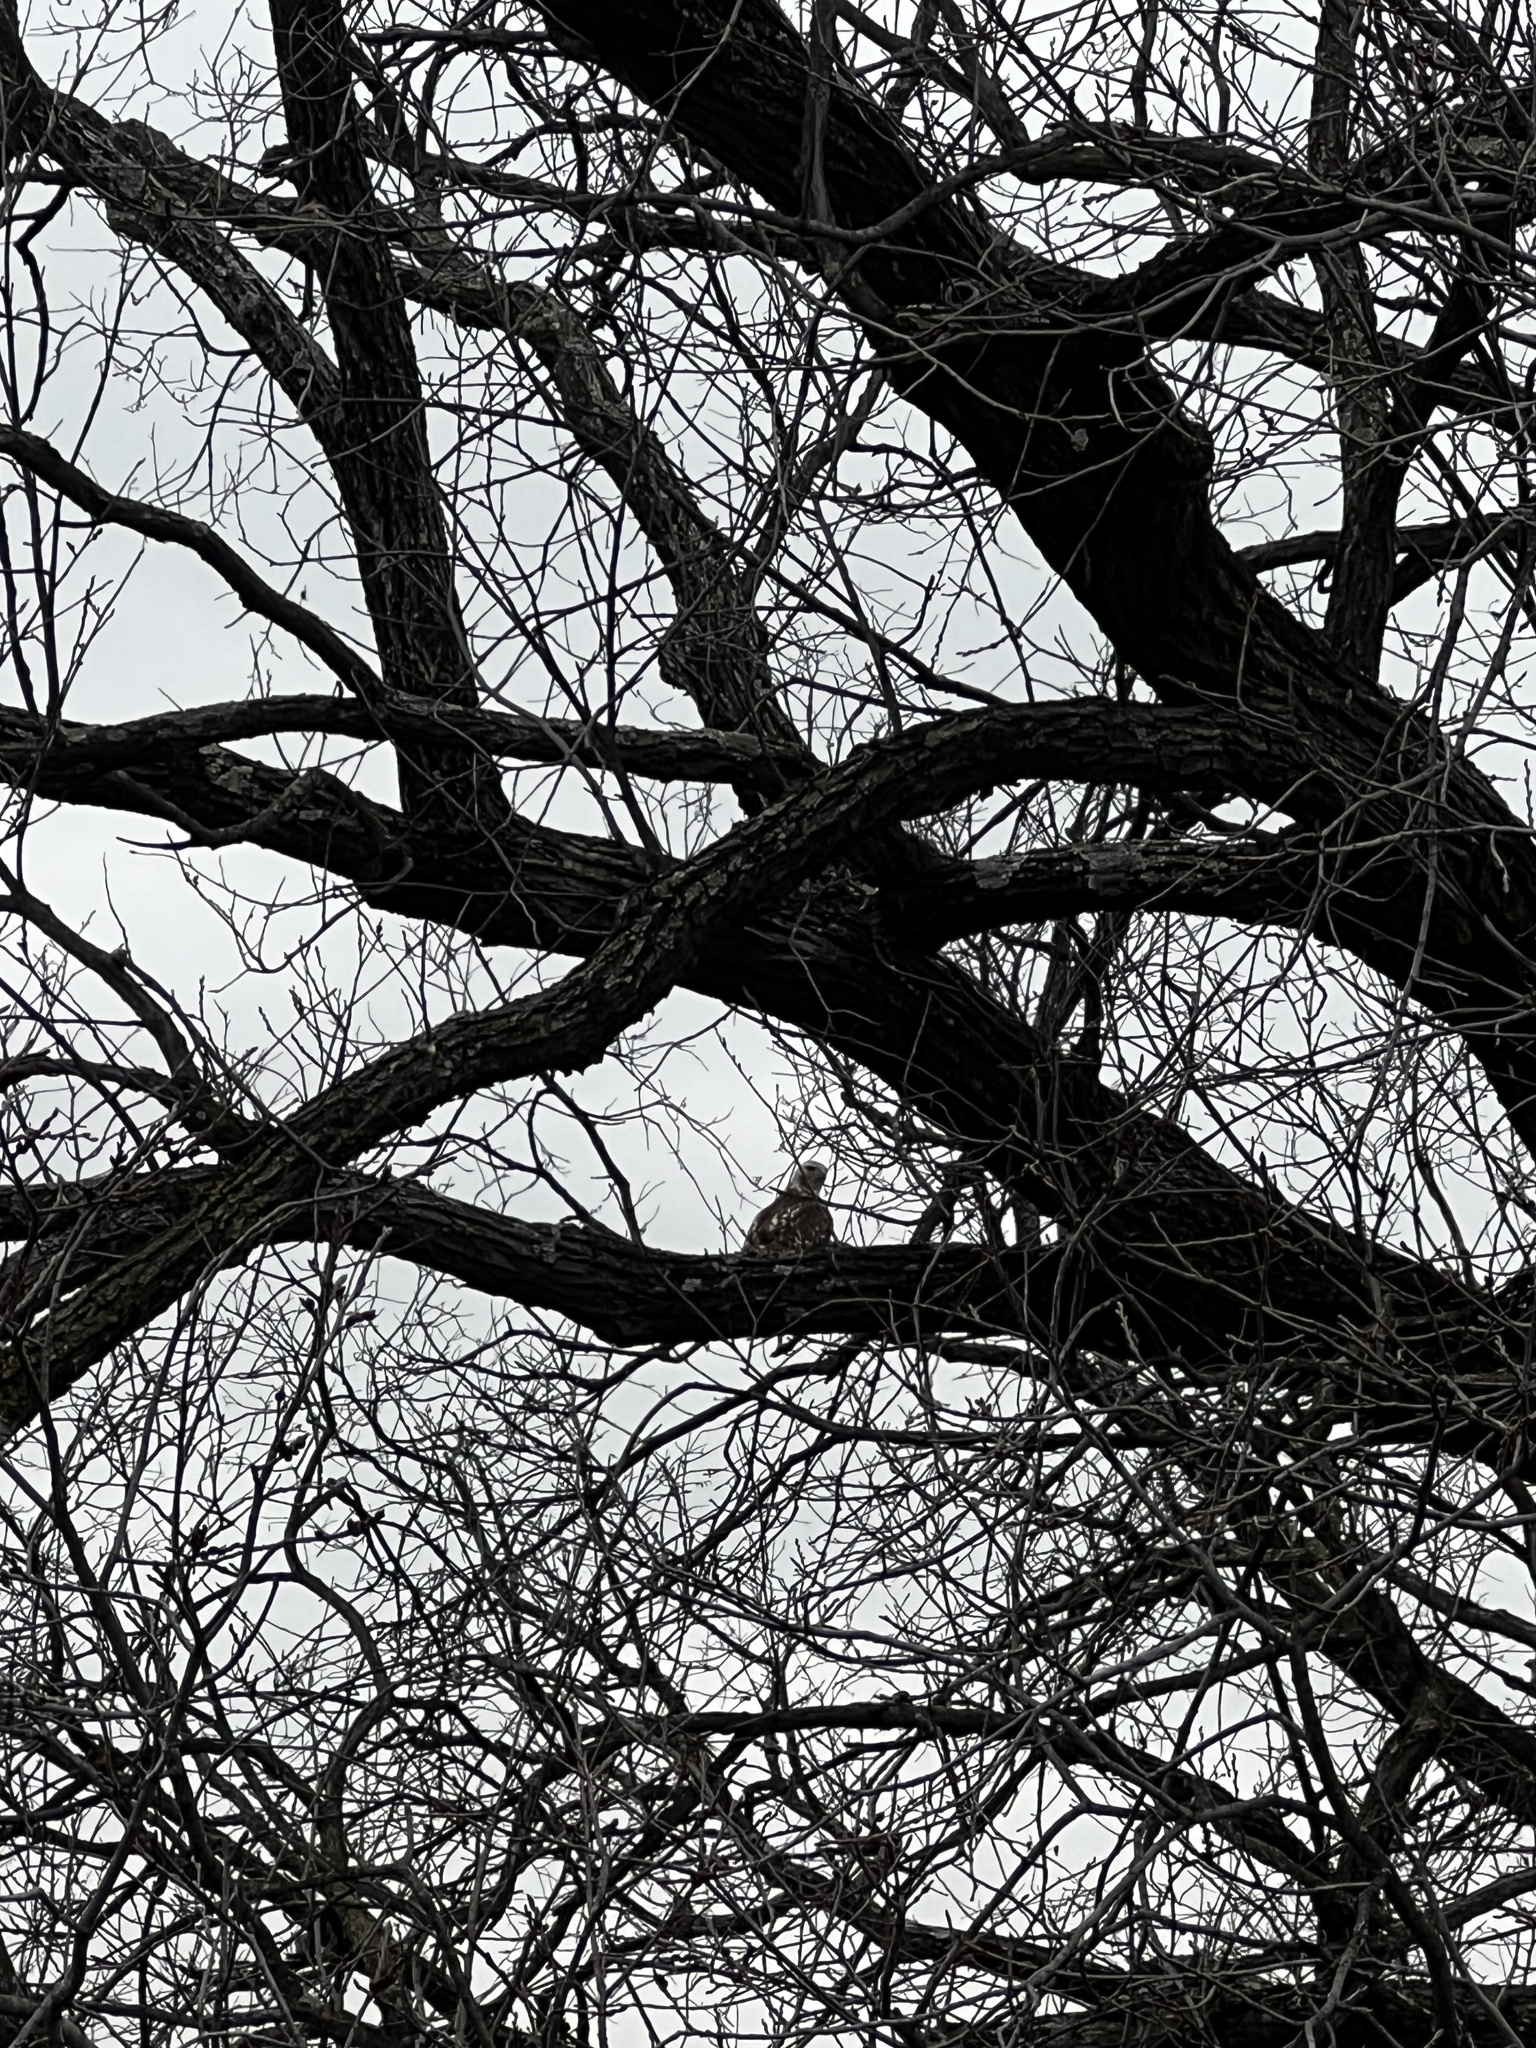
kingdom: Animalia
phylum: Chordata
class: Aves
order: Accipitriformes
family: Accipitridae
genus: Buteo
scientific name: Buteo jamaicensis
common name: Red-tailed hawk
